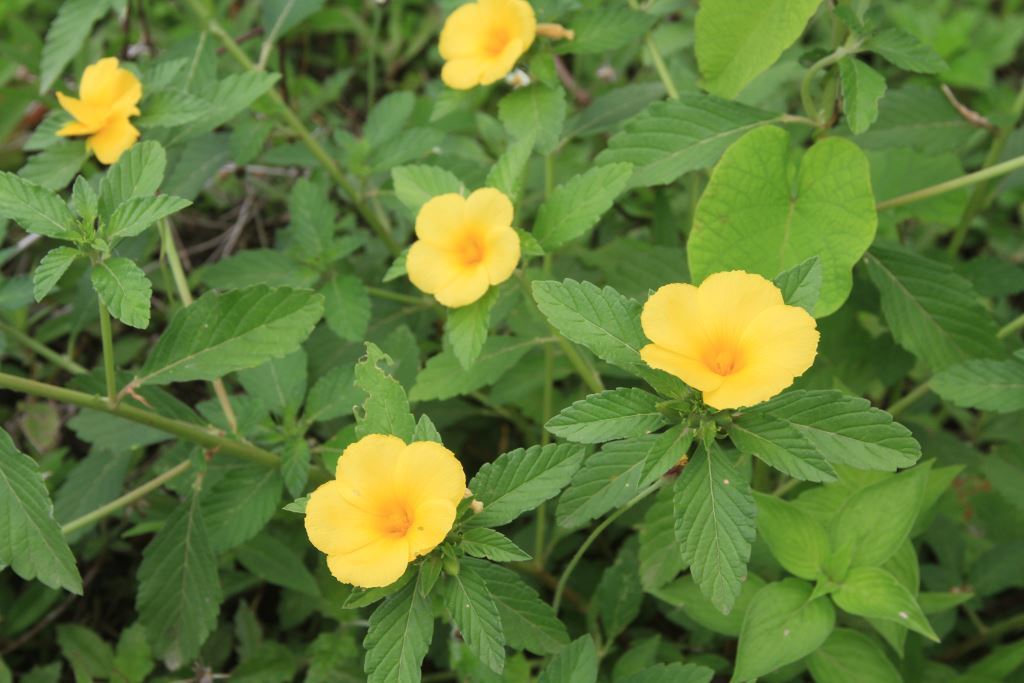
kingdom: Plantae
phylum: Tracheophyta
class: Magnoliopsida
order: Malpighiales
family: Turneraceae
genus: Turnera
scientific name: Turnera ulmifolia
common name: Ramgoat dashalong
